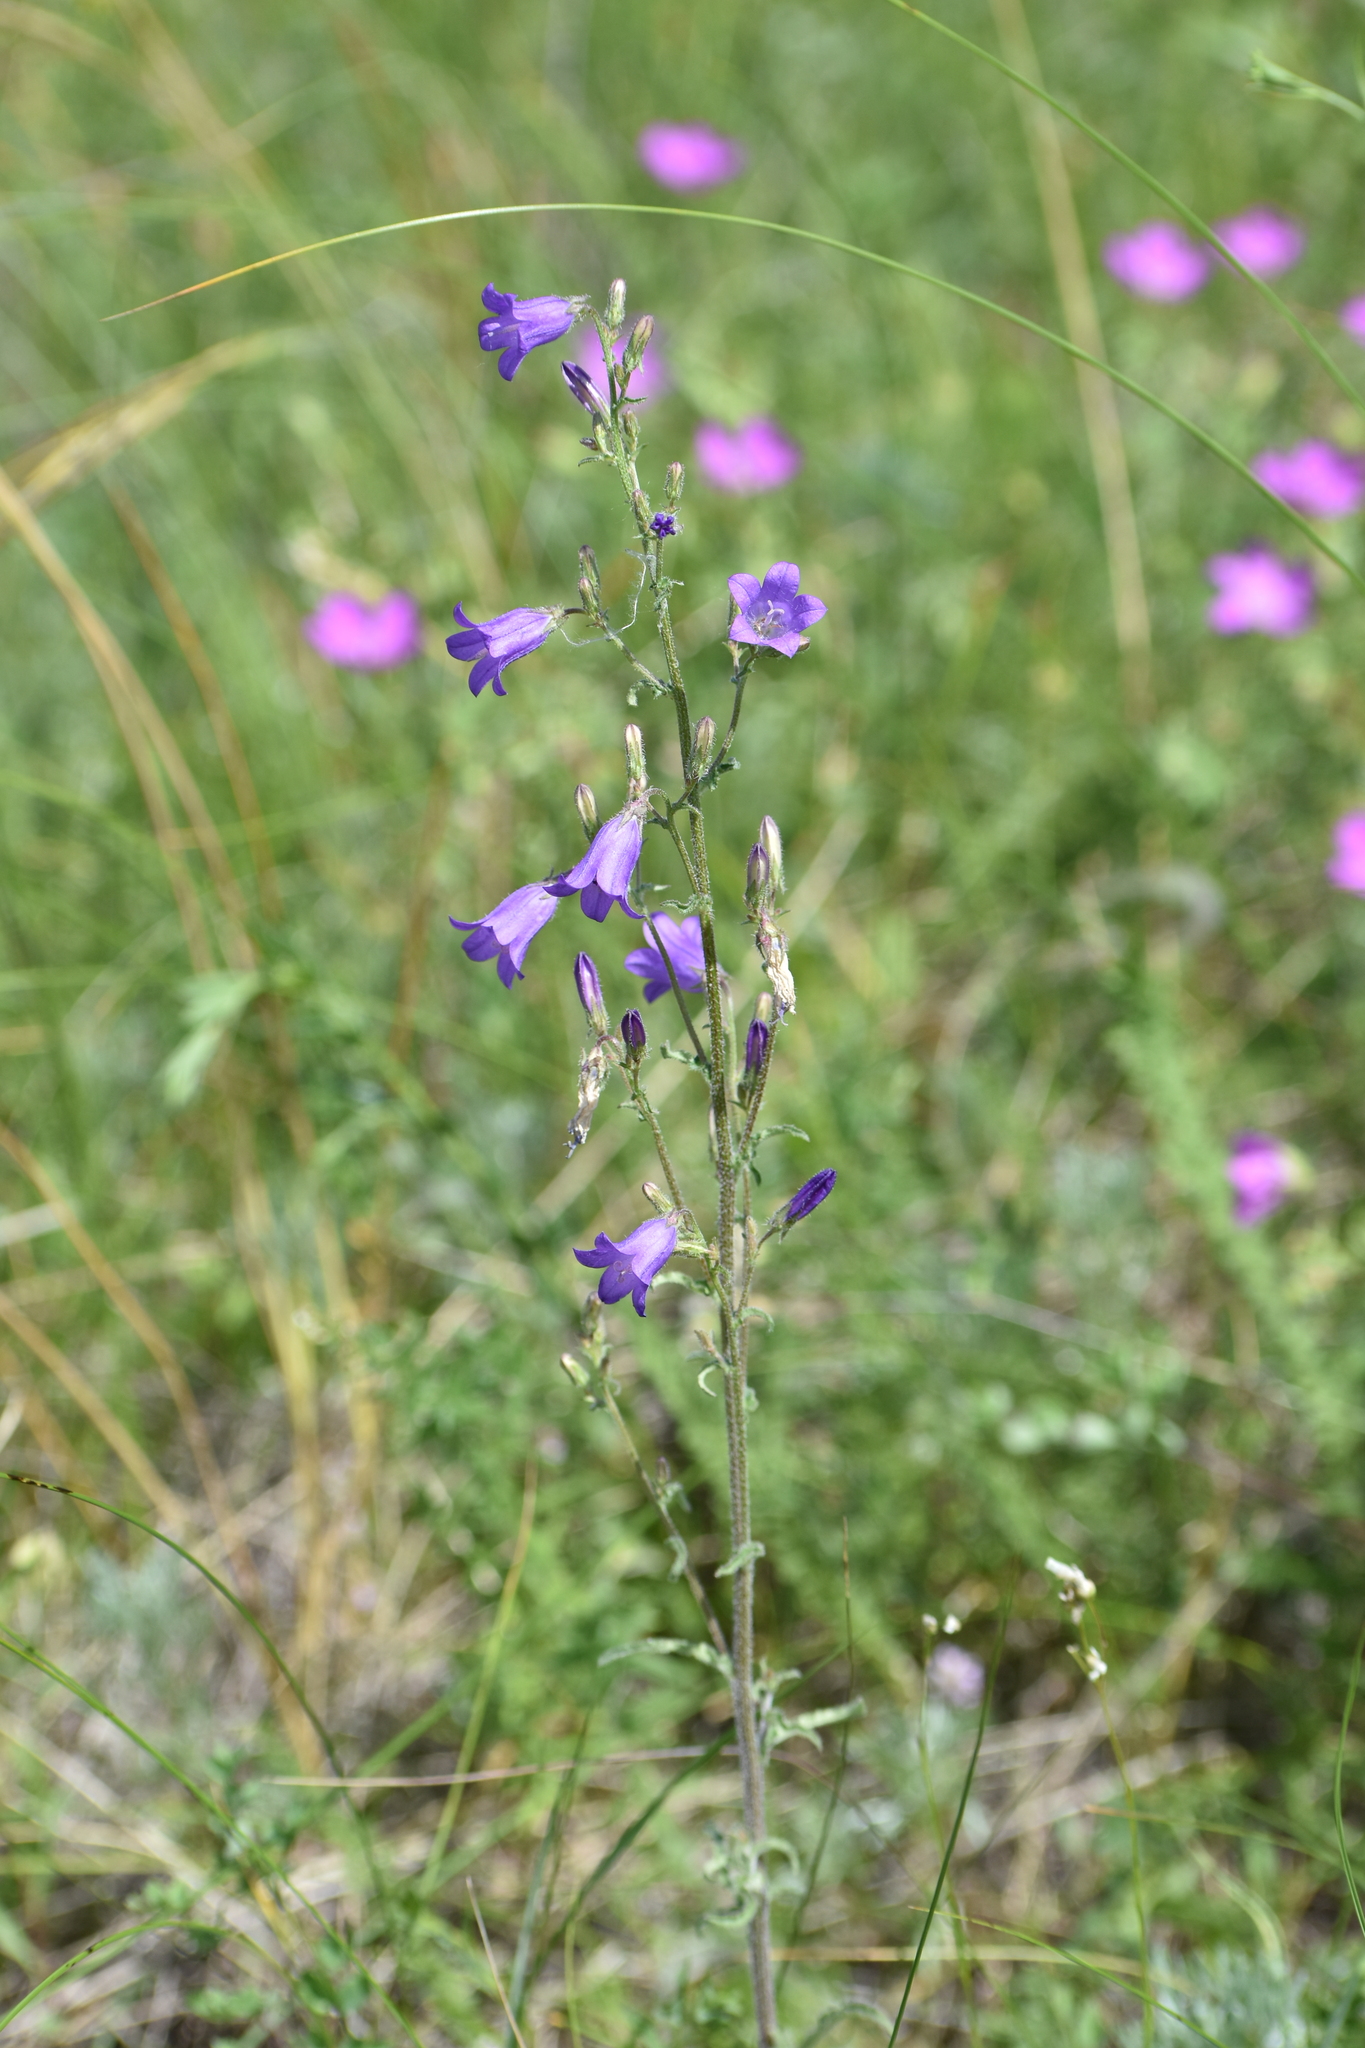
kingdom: Plantae
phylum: Tracheophyta
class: Magnoliopsida
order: Asterales
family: Campanulaceae
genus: Campanula
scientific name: Campanula sibirica
